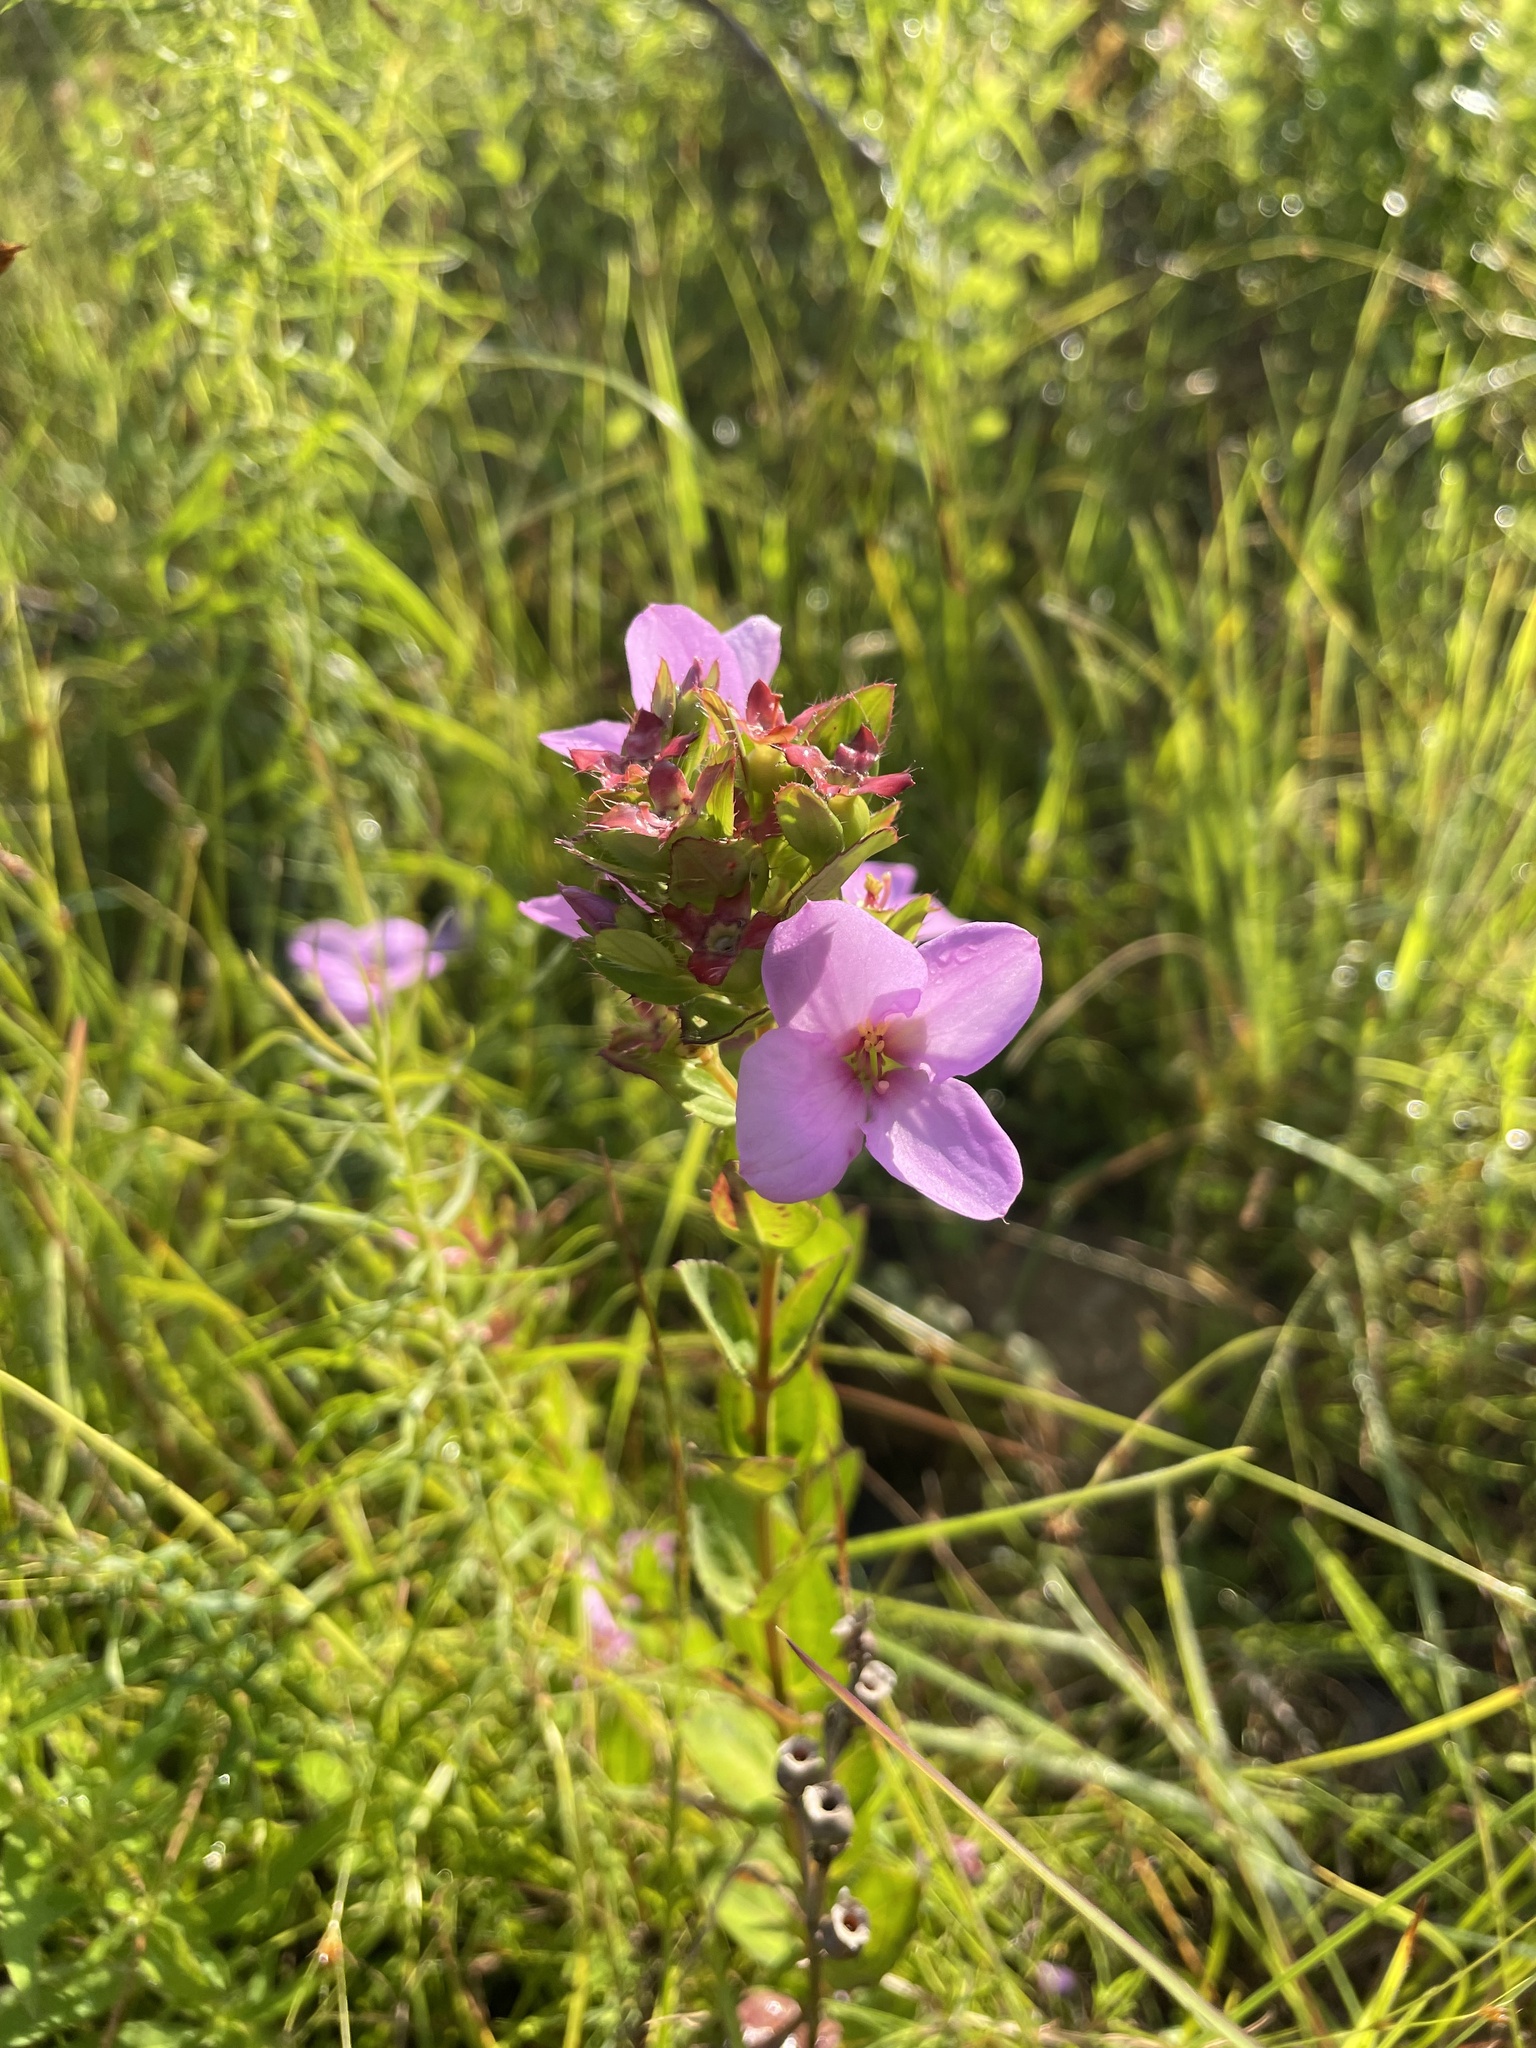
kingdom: Plantae
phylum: Tracheophyta
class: Magnoliopsida
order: Myrtales
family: Melastomataceae
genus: Rhexia
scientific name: Rhexia petiolata
